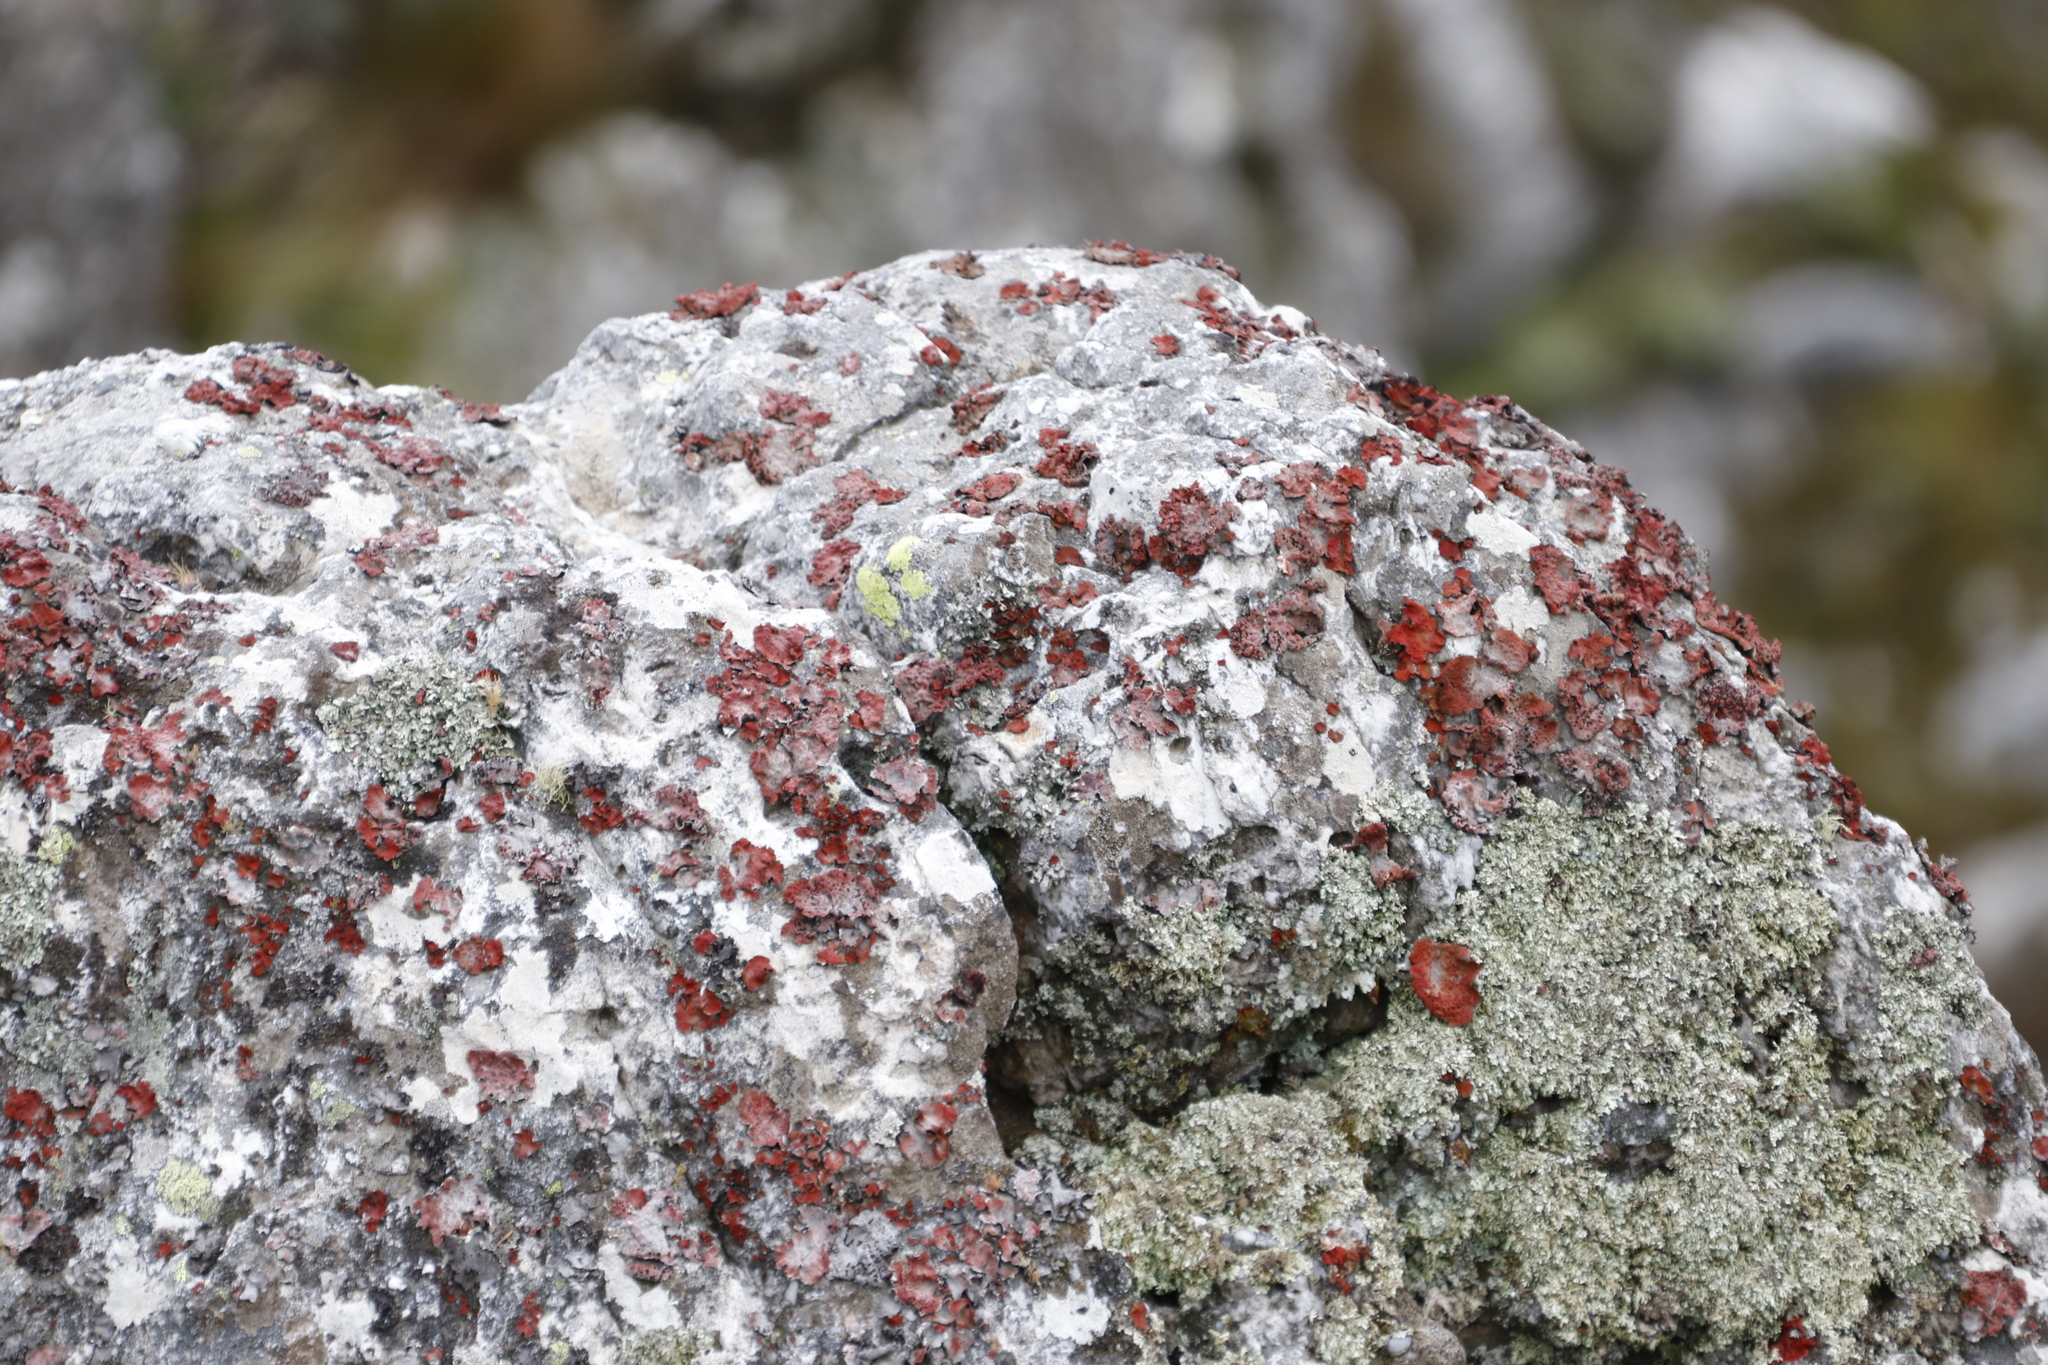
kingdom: Fungi
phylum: Ascomycota
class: Lecanoromycetes
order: Umbilicariales
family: Umbilicariaceae
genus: Lasallia
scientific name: Lasallia rubiginosa
